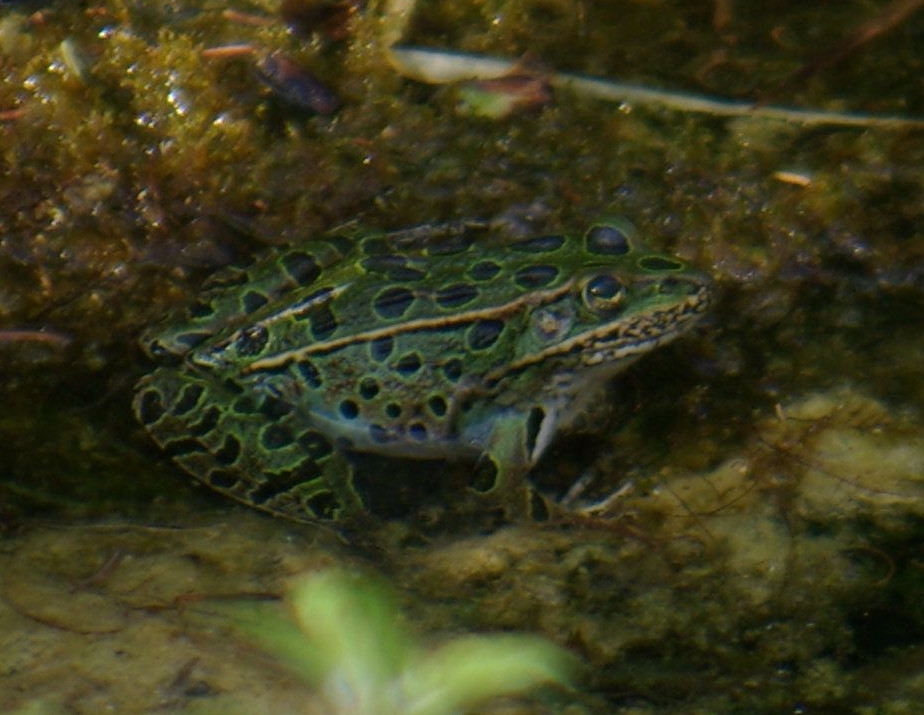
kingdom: Animalia
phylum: Chordata
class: Amphibia
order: Anura
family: Ranidae
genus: Lithobates
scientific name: Lithobates pipiens
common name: Northern leopard frog
